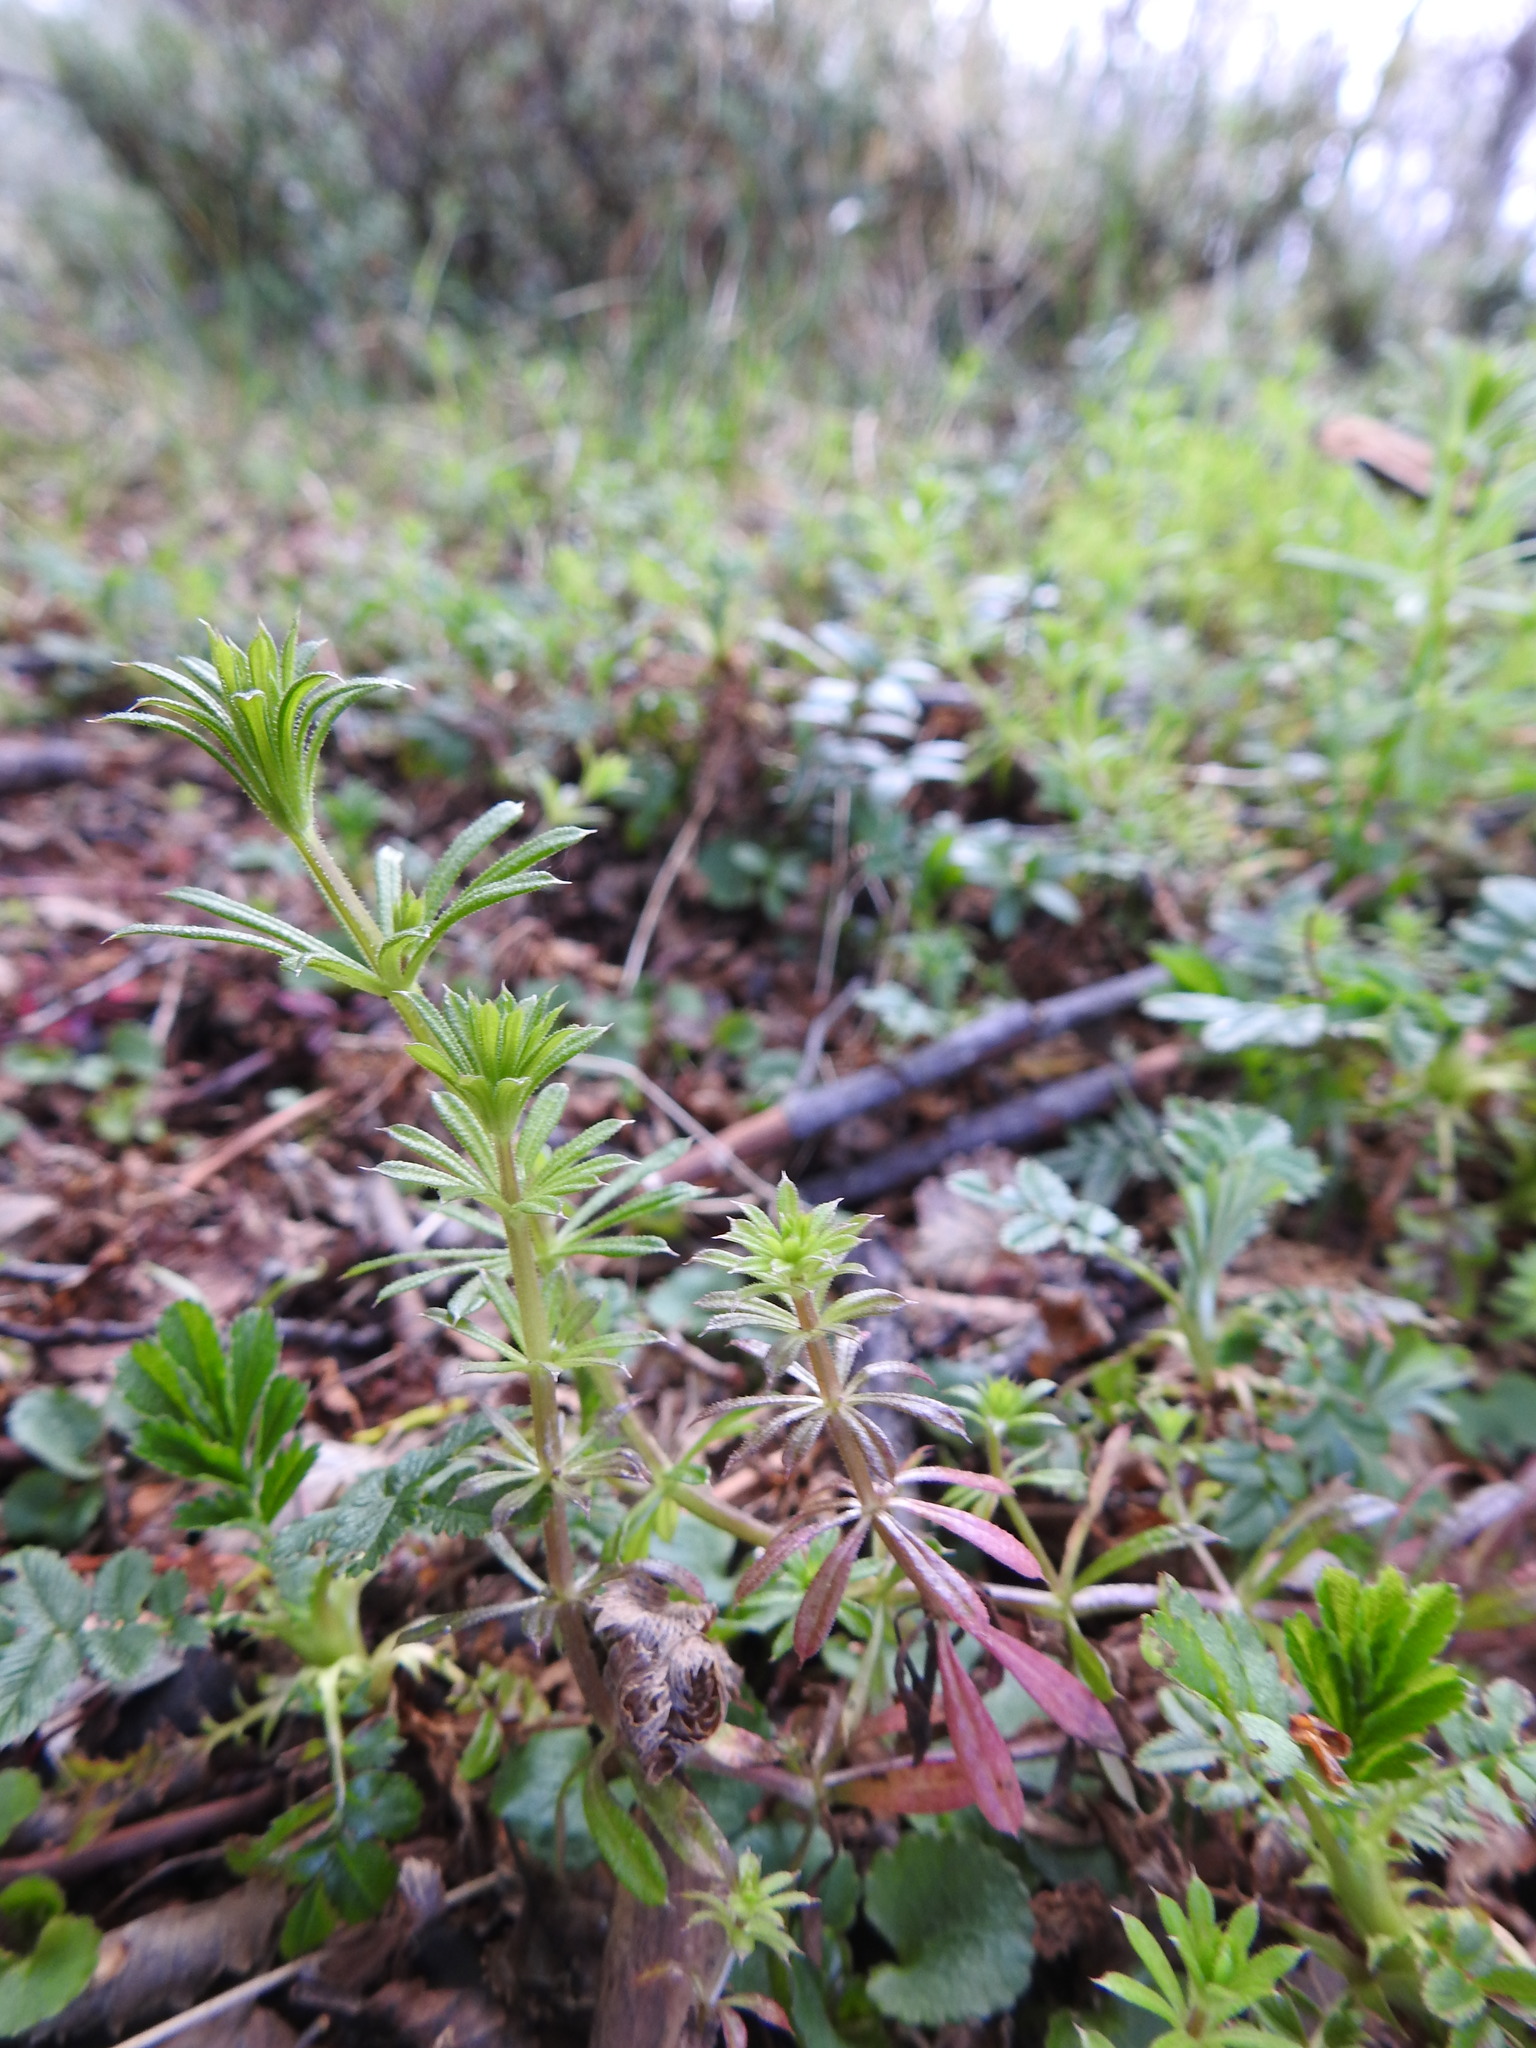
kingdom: Plantae
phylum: Tracheophyta
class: Magnoliopsida
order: Gentianales
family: Rubiaceae
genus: Galium
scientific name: Galium aparine
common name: Cleavers
